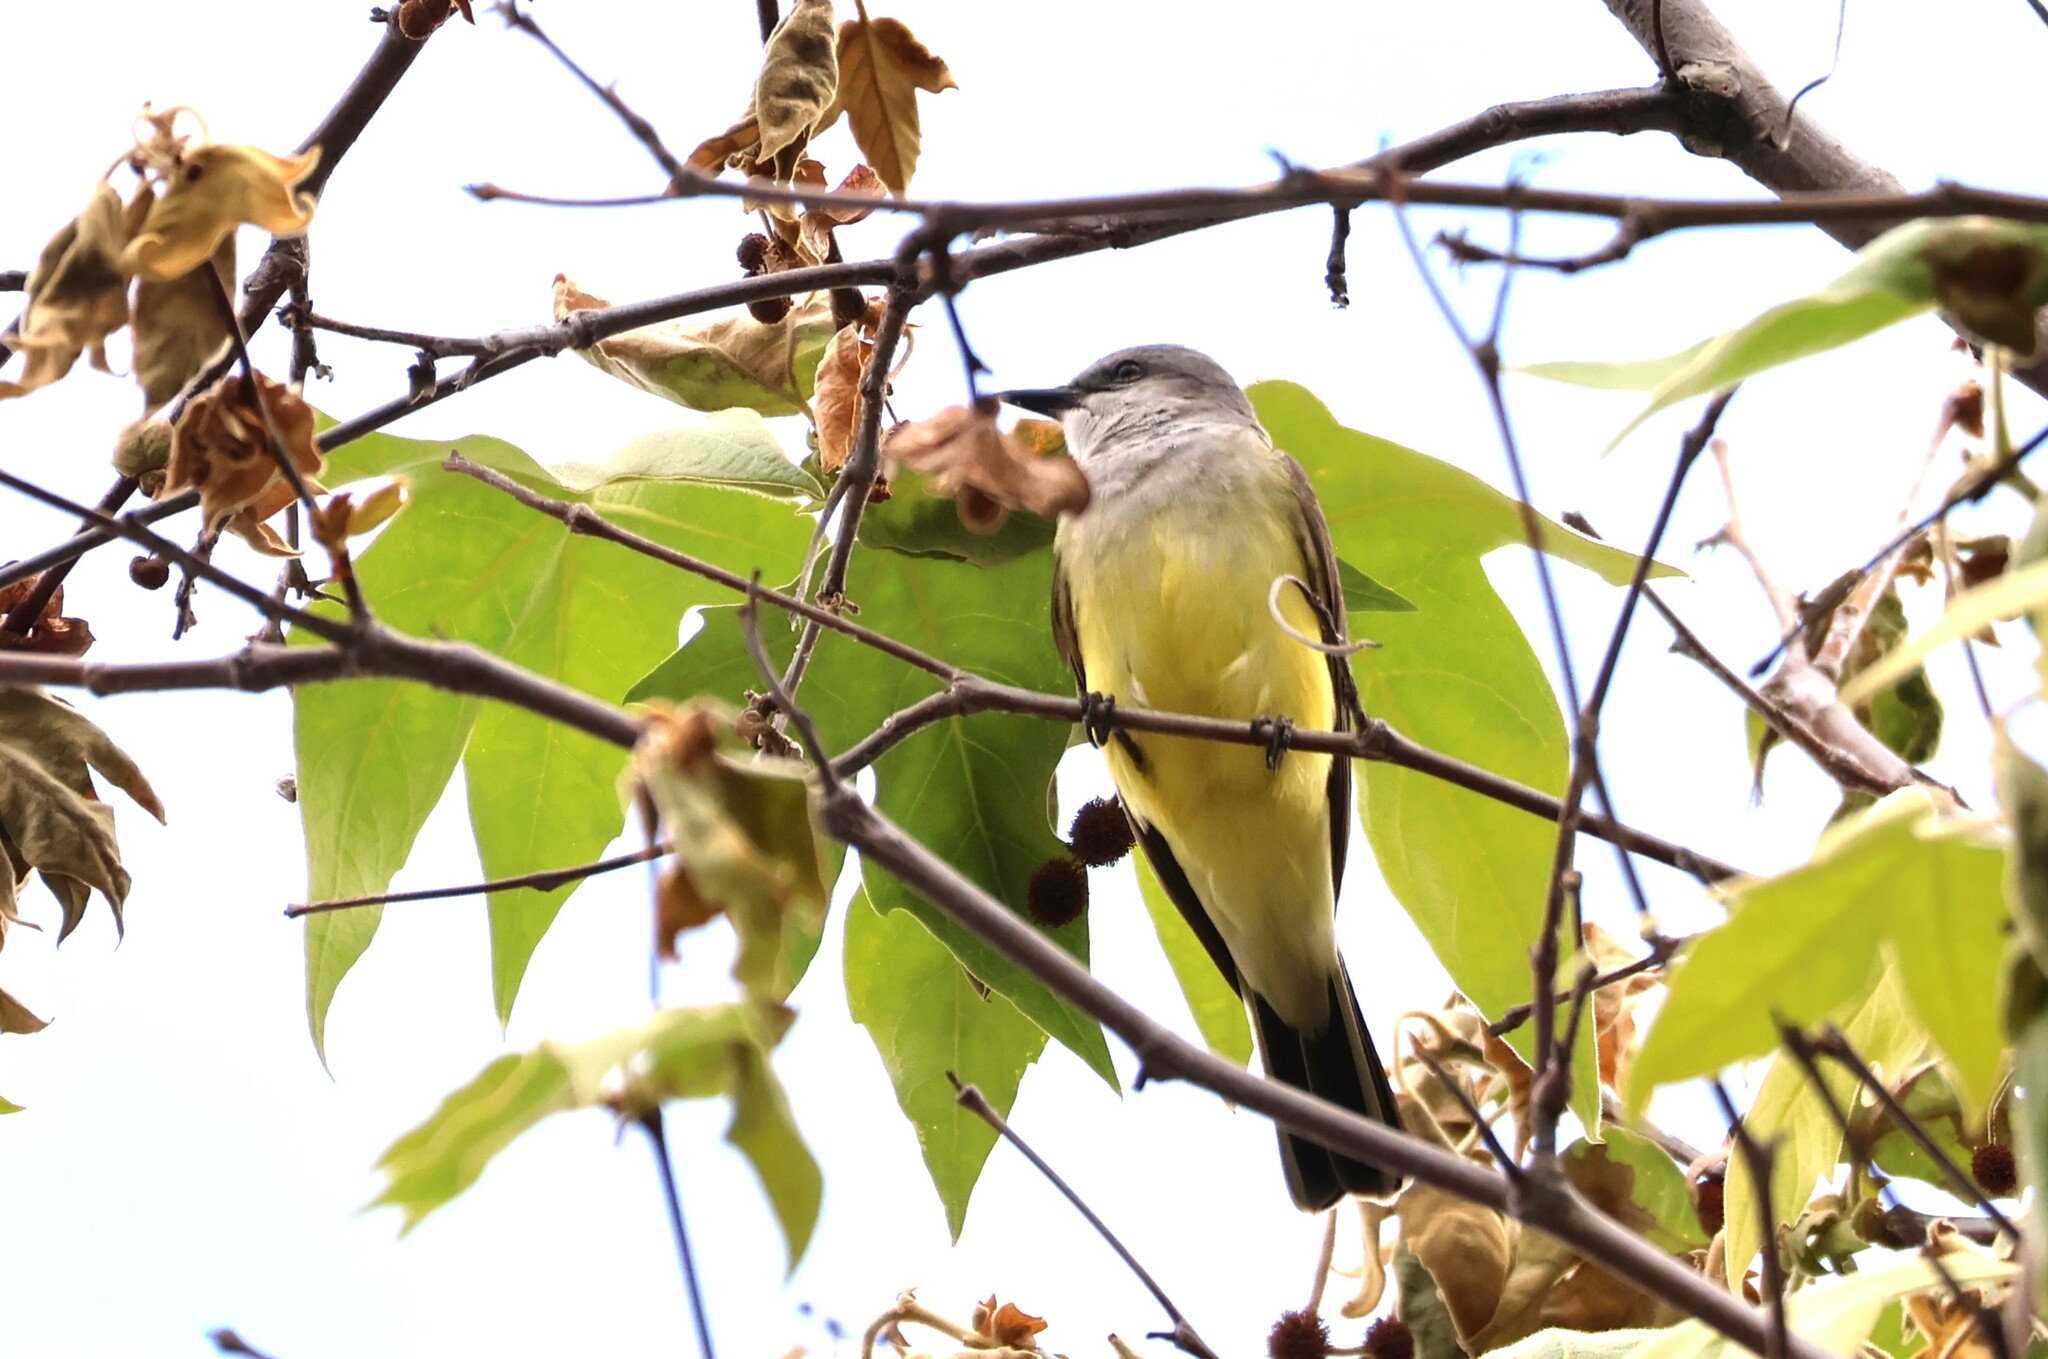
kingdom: Animalia
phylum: Chordata
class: Aves
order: Passeriformes
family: Tyrannidae
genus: Tyrannus
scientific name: Tyrannus verticalis
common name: Western kingbird
